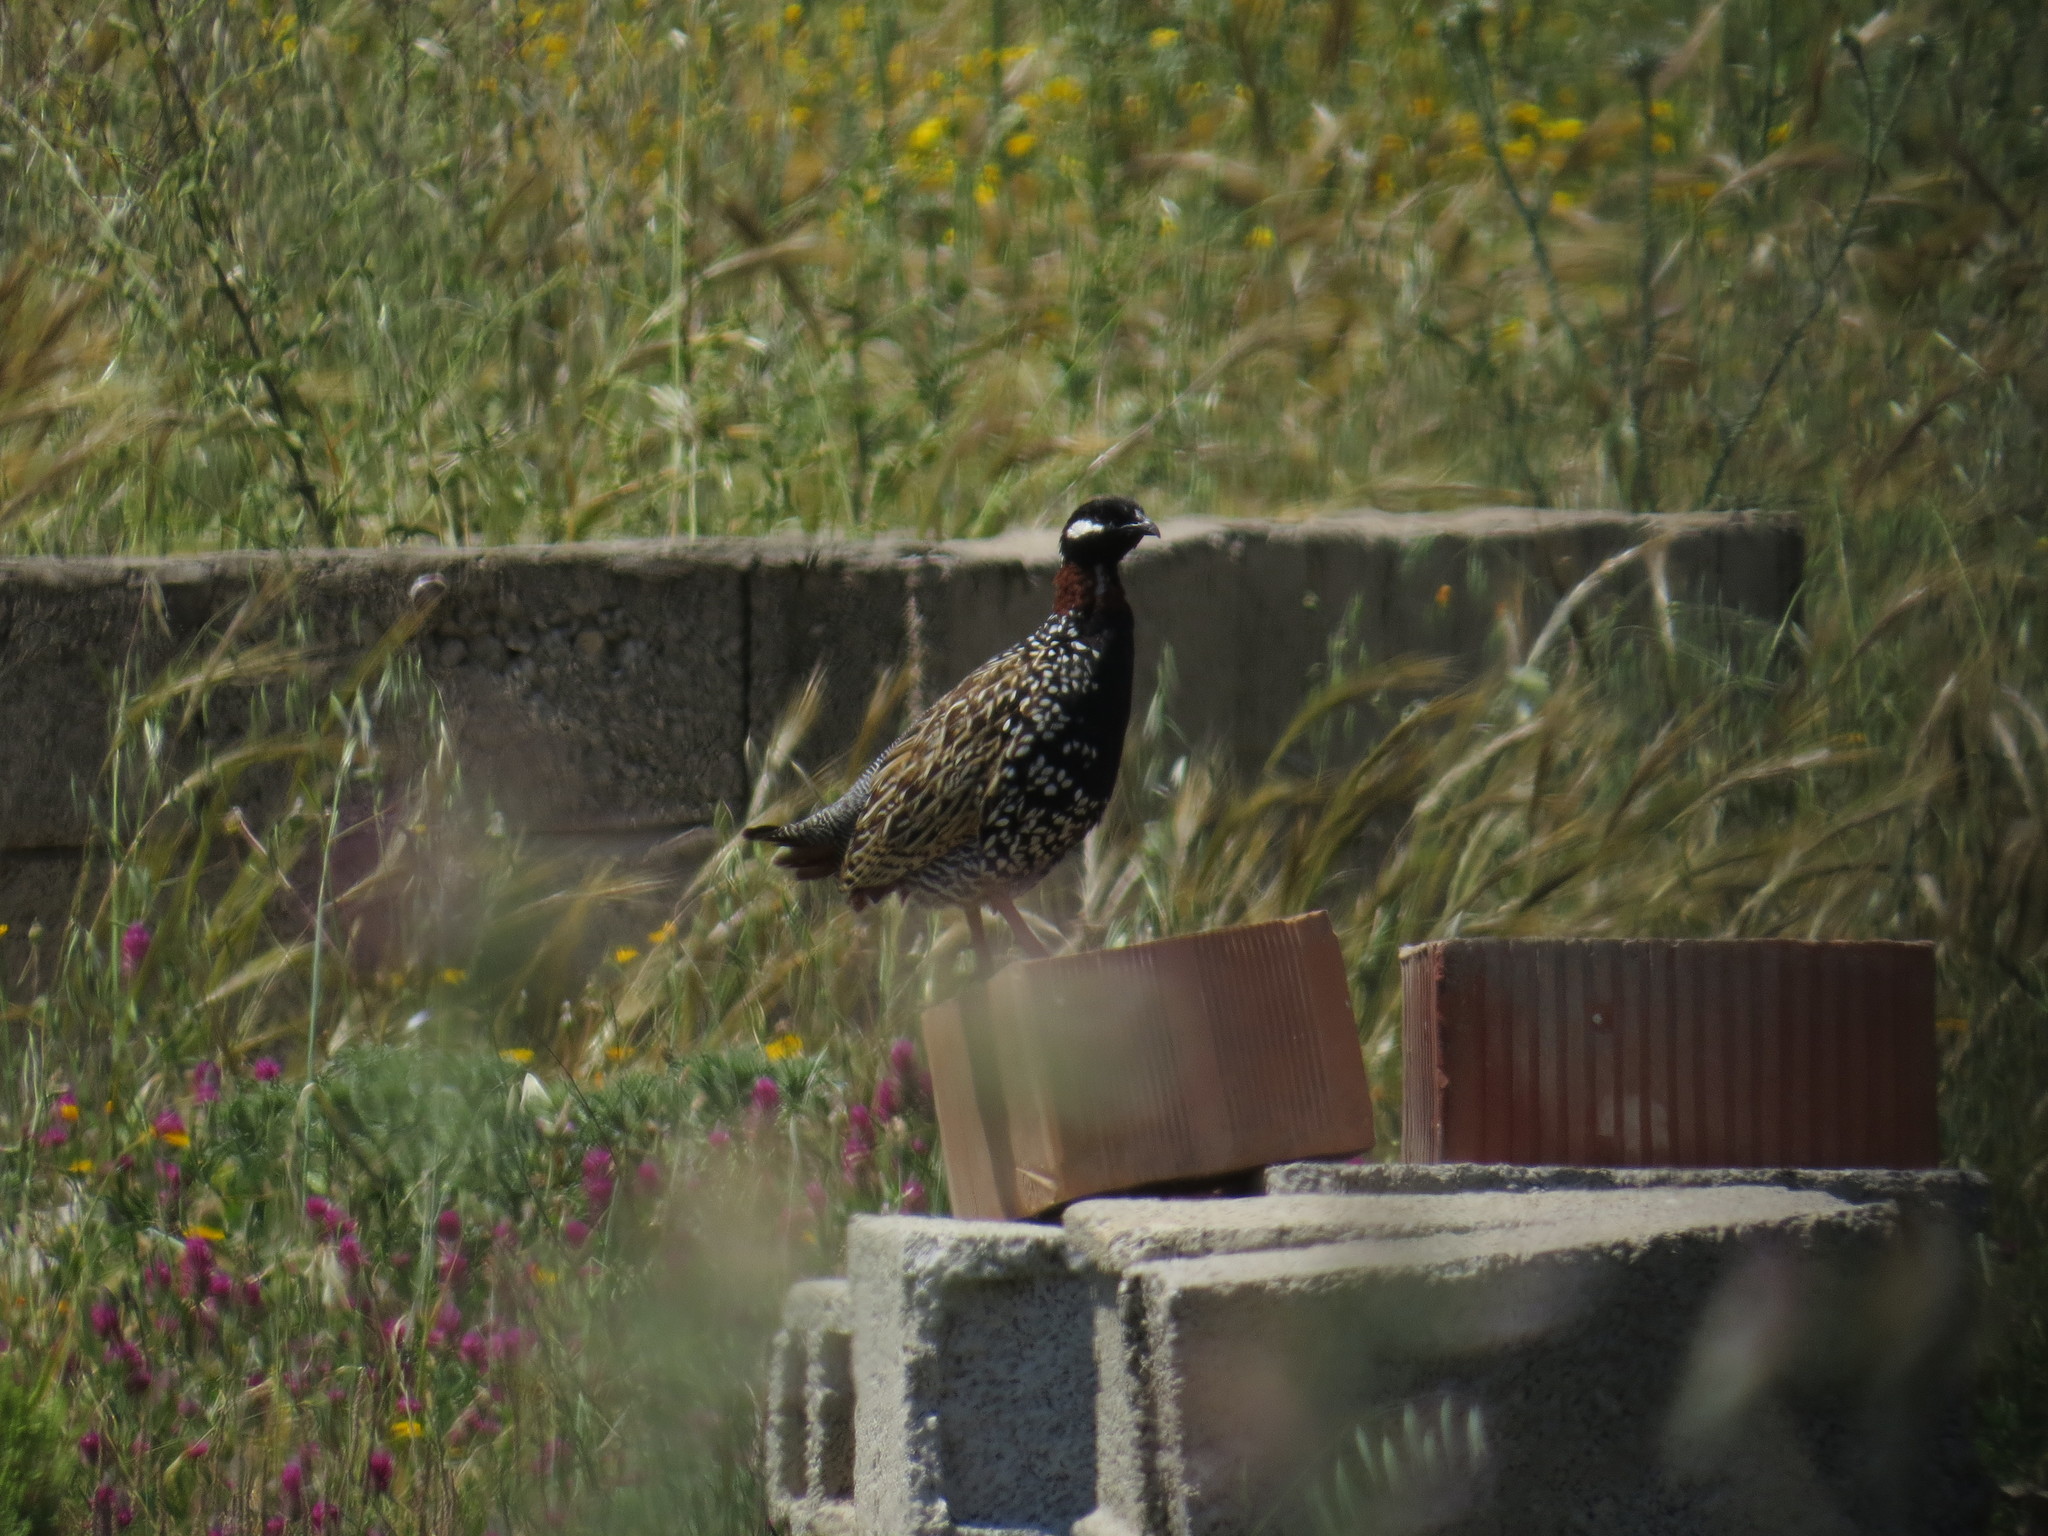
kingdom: Animalia
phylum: Chordata
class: Aves
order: Galliformes
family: Phasianidae
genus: Francolinus
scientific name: Francolinus francolinus
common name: Black francolin
